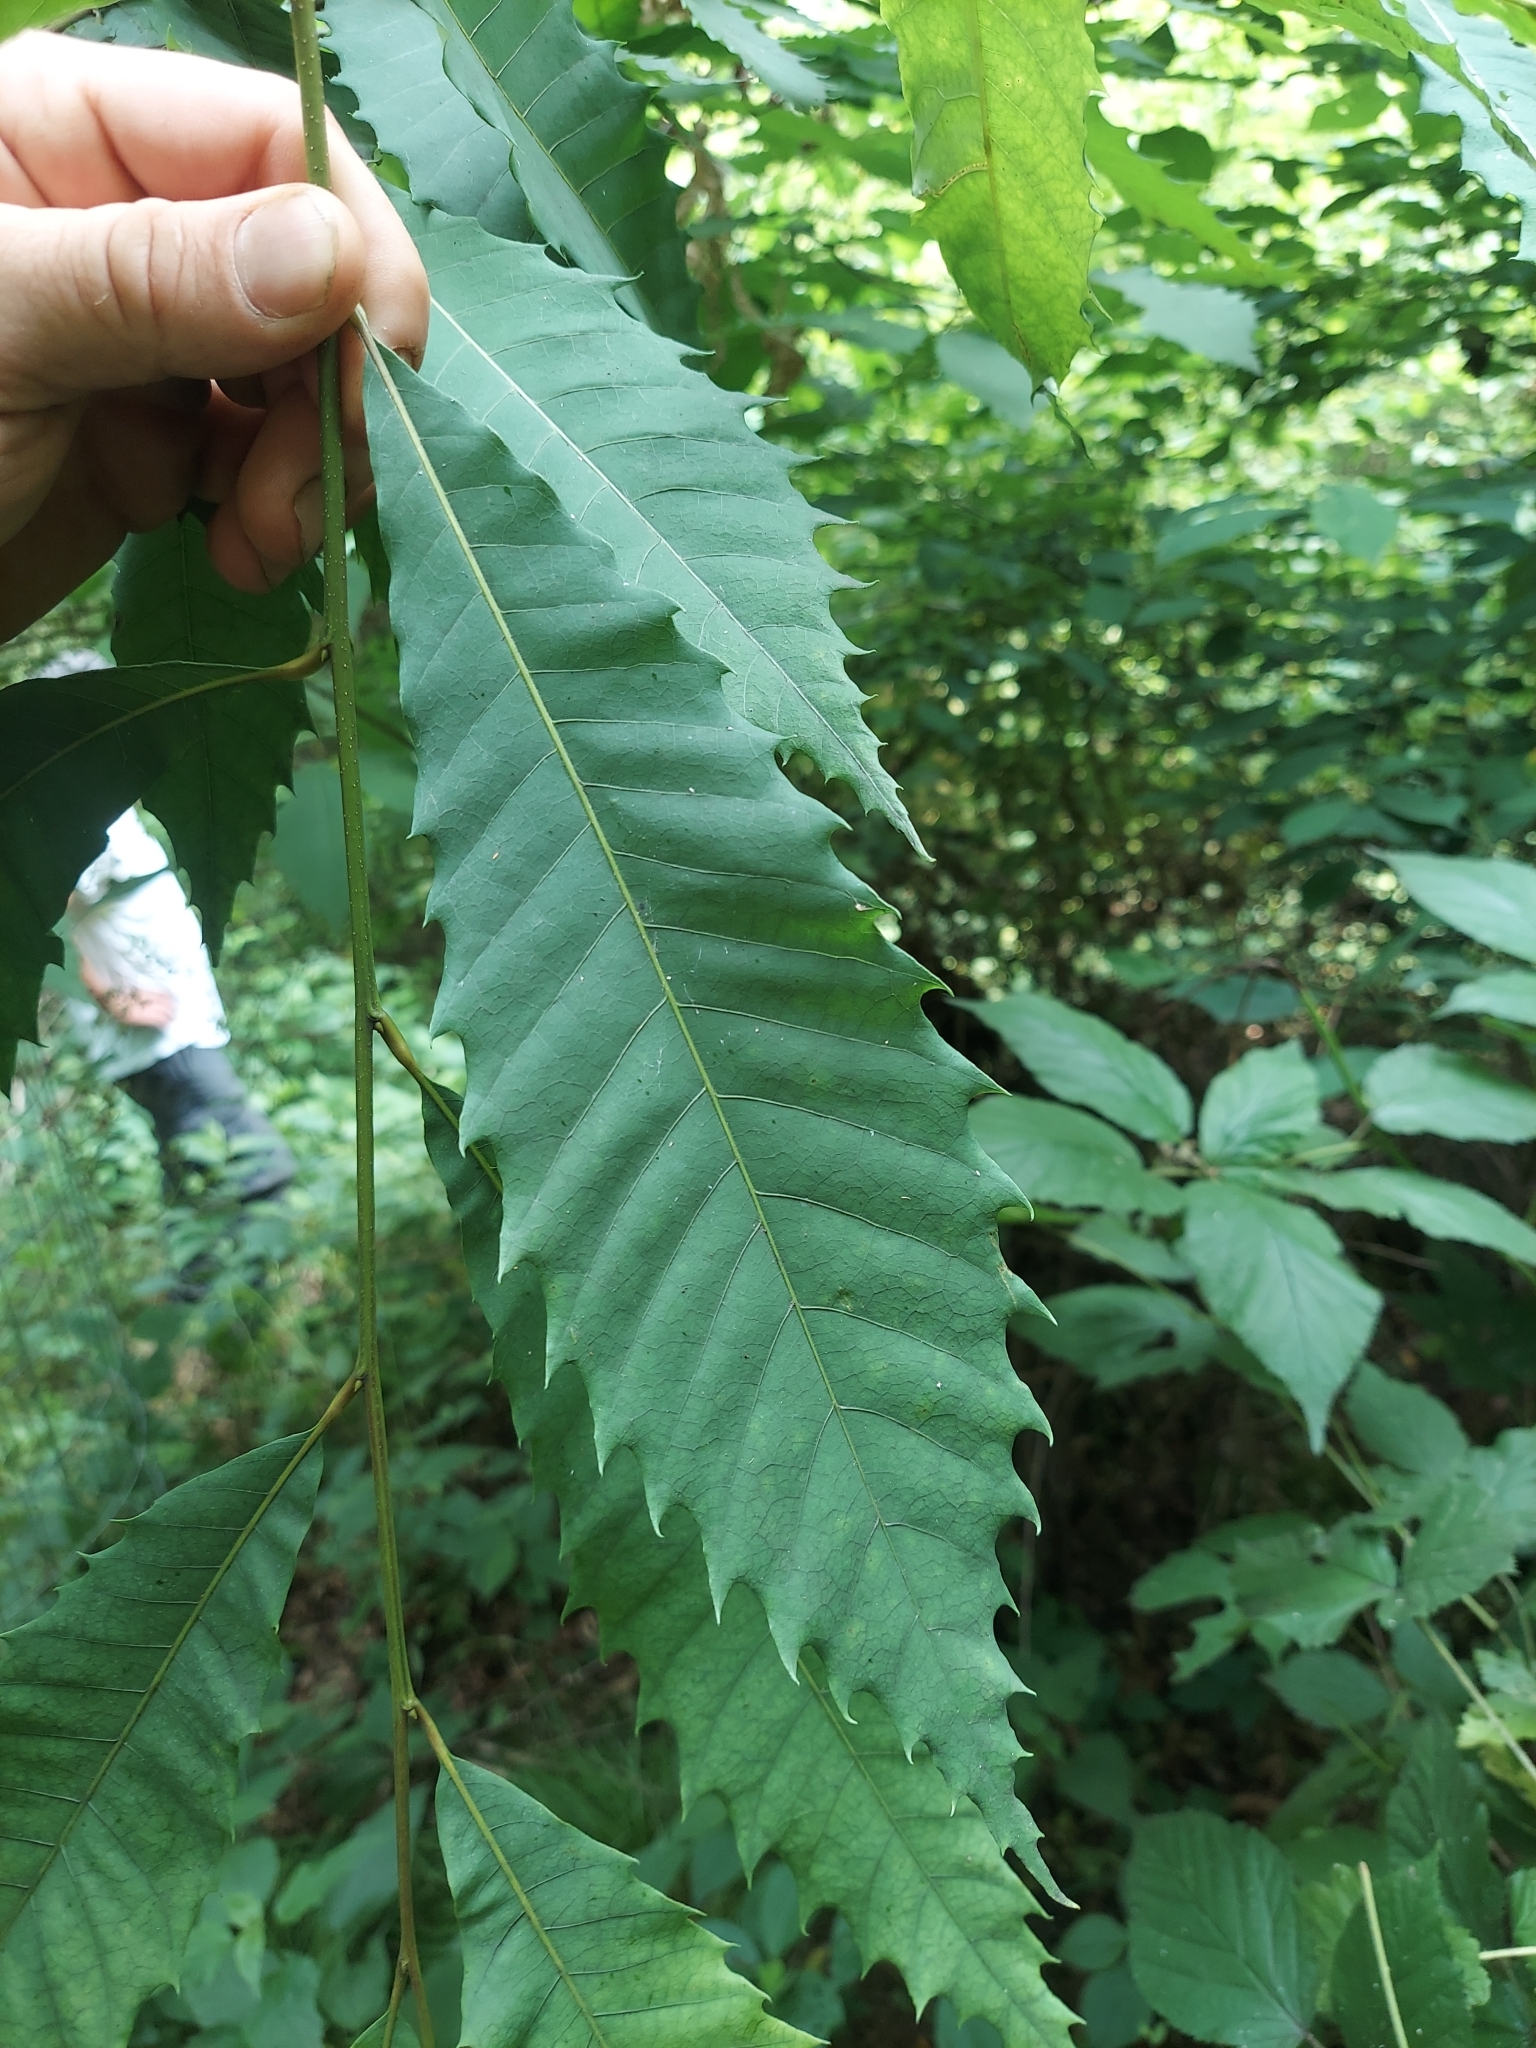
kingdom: Plantae
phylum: Tracheophyta
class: Magnoliopsida
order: Fagales
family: Fagaceae
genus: Castanea
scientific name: Castanea dentata
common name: American chestnut
